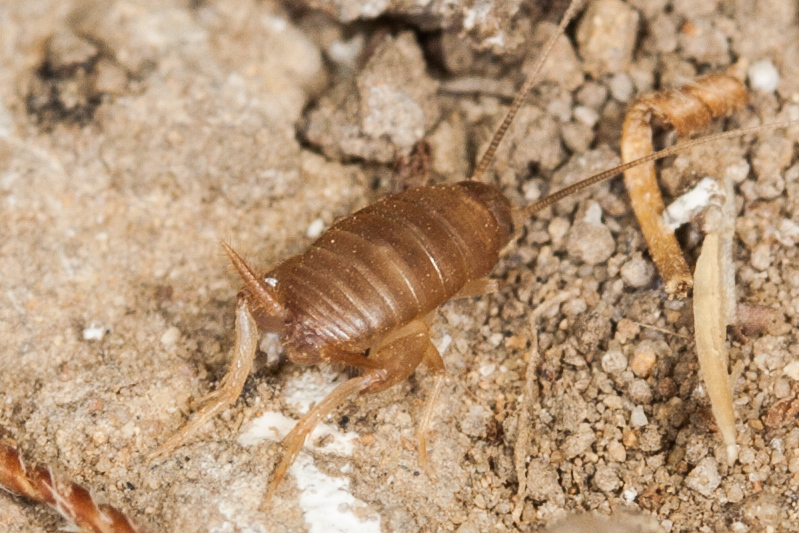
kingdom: Animalia
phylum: Arthropoda
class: Insecta
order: Orthoptera
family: Myrmecophilidae
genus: Myrmecophilus
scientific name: Myrmecophilus oregonensis
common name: Oregon ant cricket
